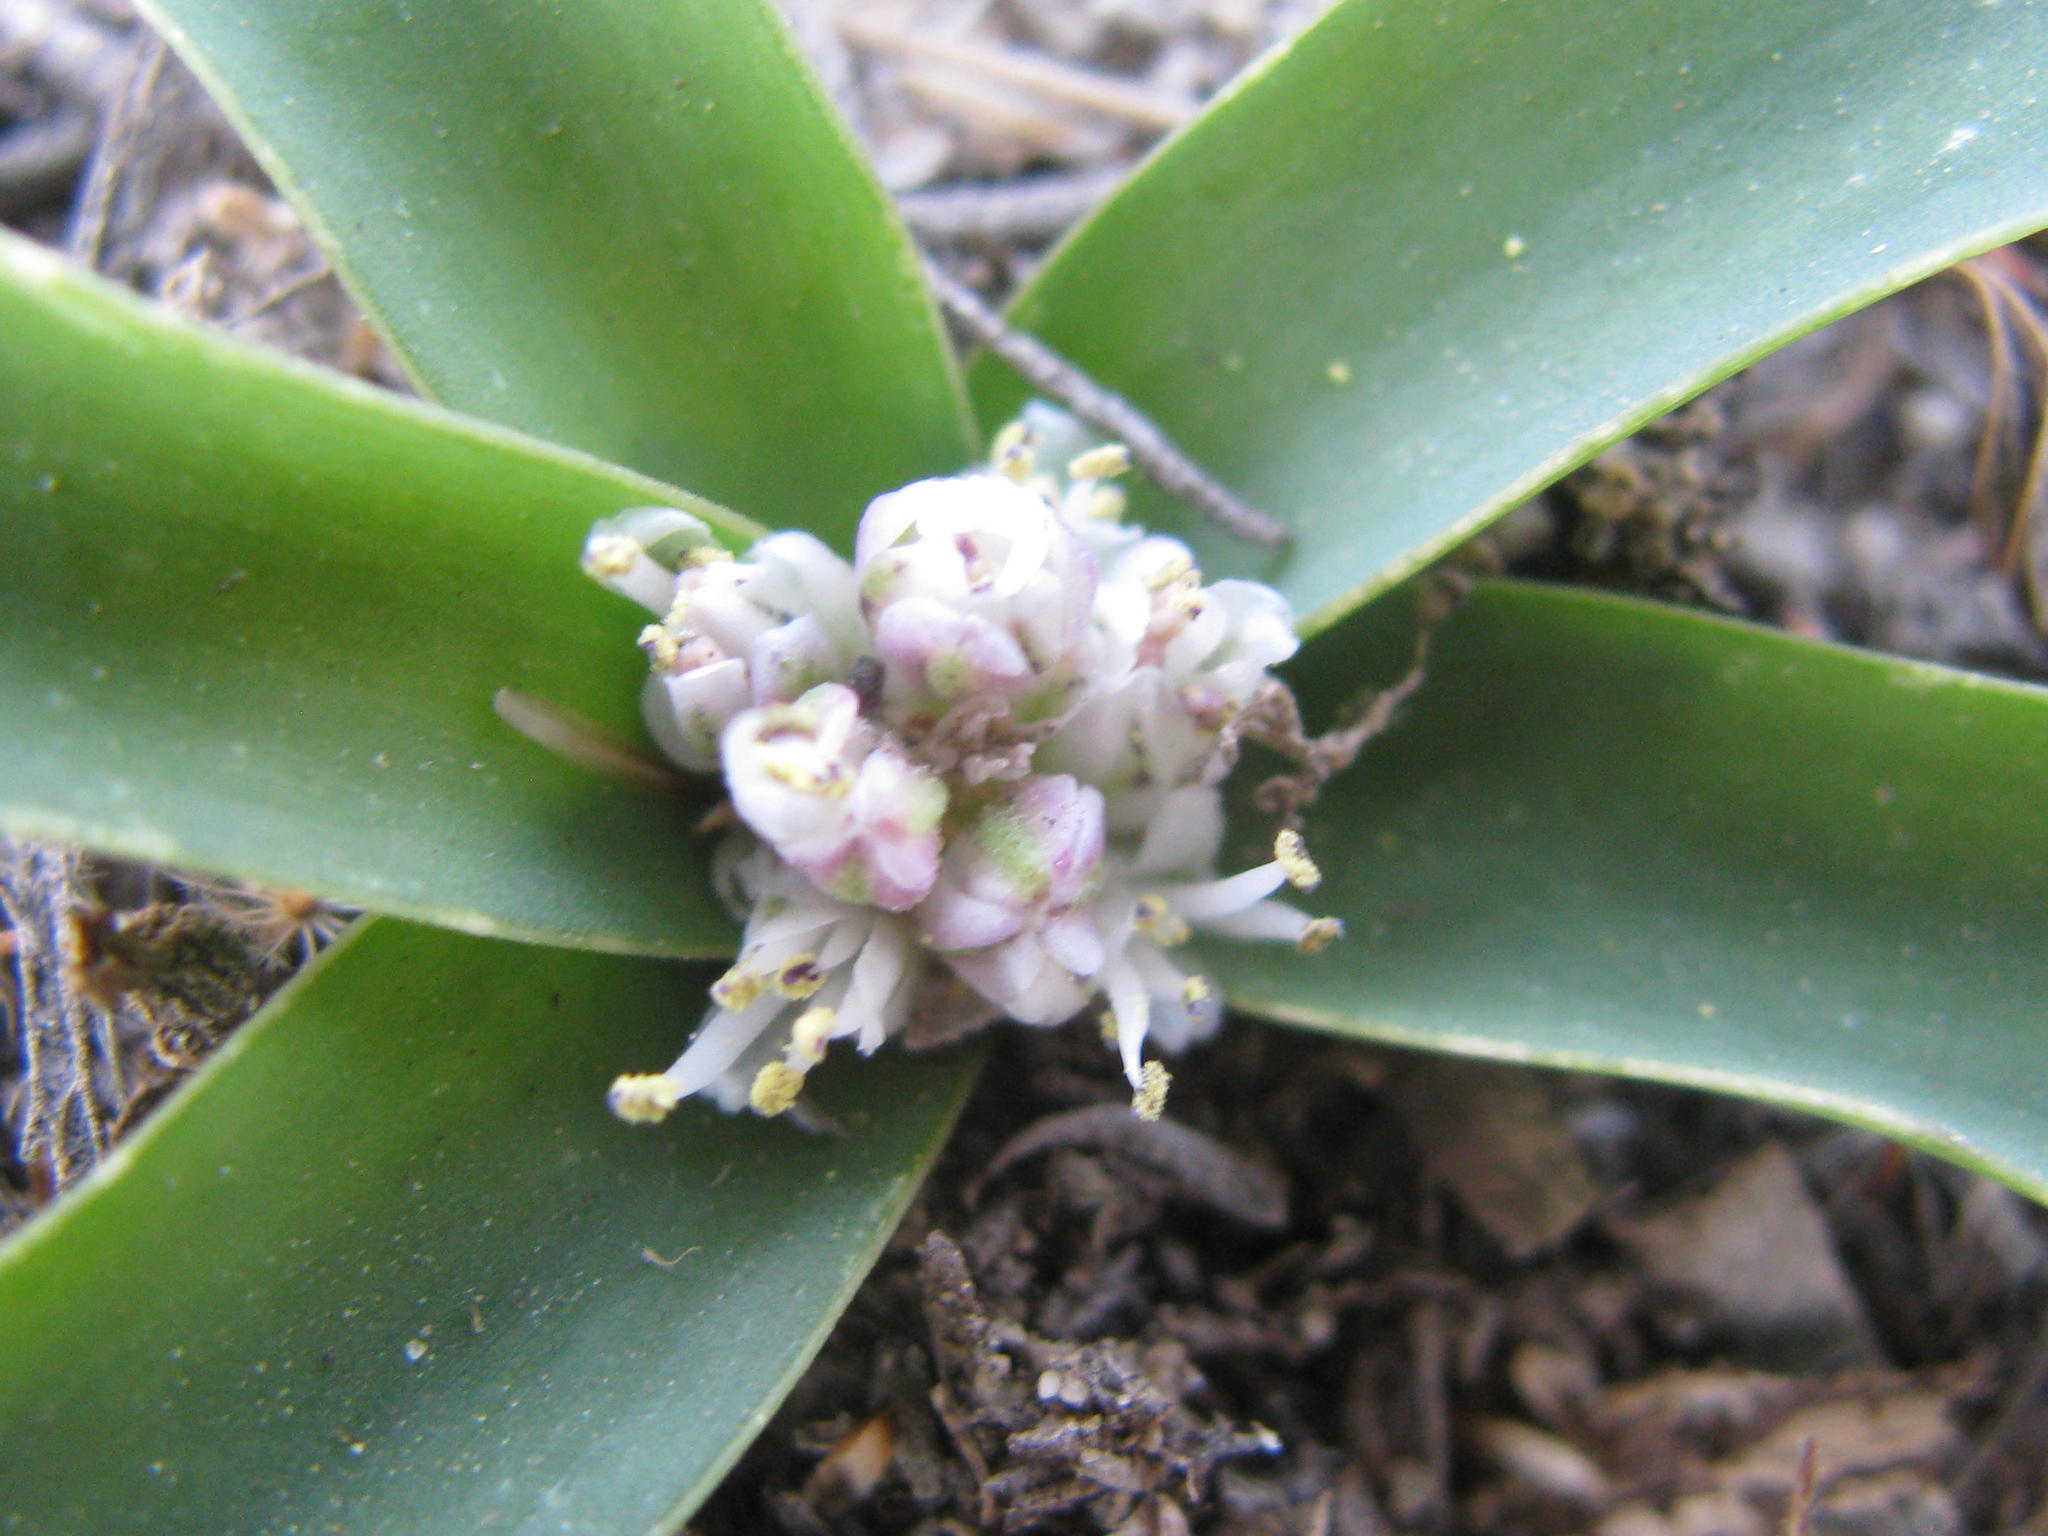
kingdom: Plantae
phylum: Tracheophyta
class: Liliopsida
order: Asparagales
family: Asparagaceae
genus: Lachenalia
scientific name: Lachenalia pusilla
